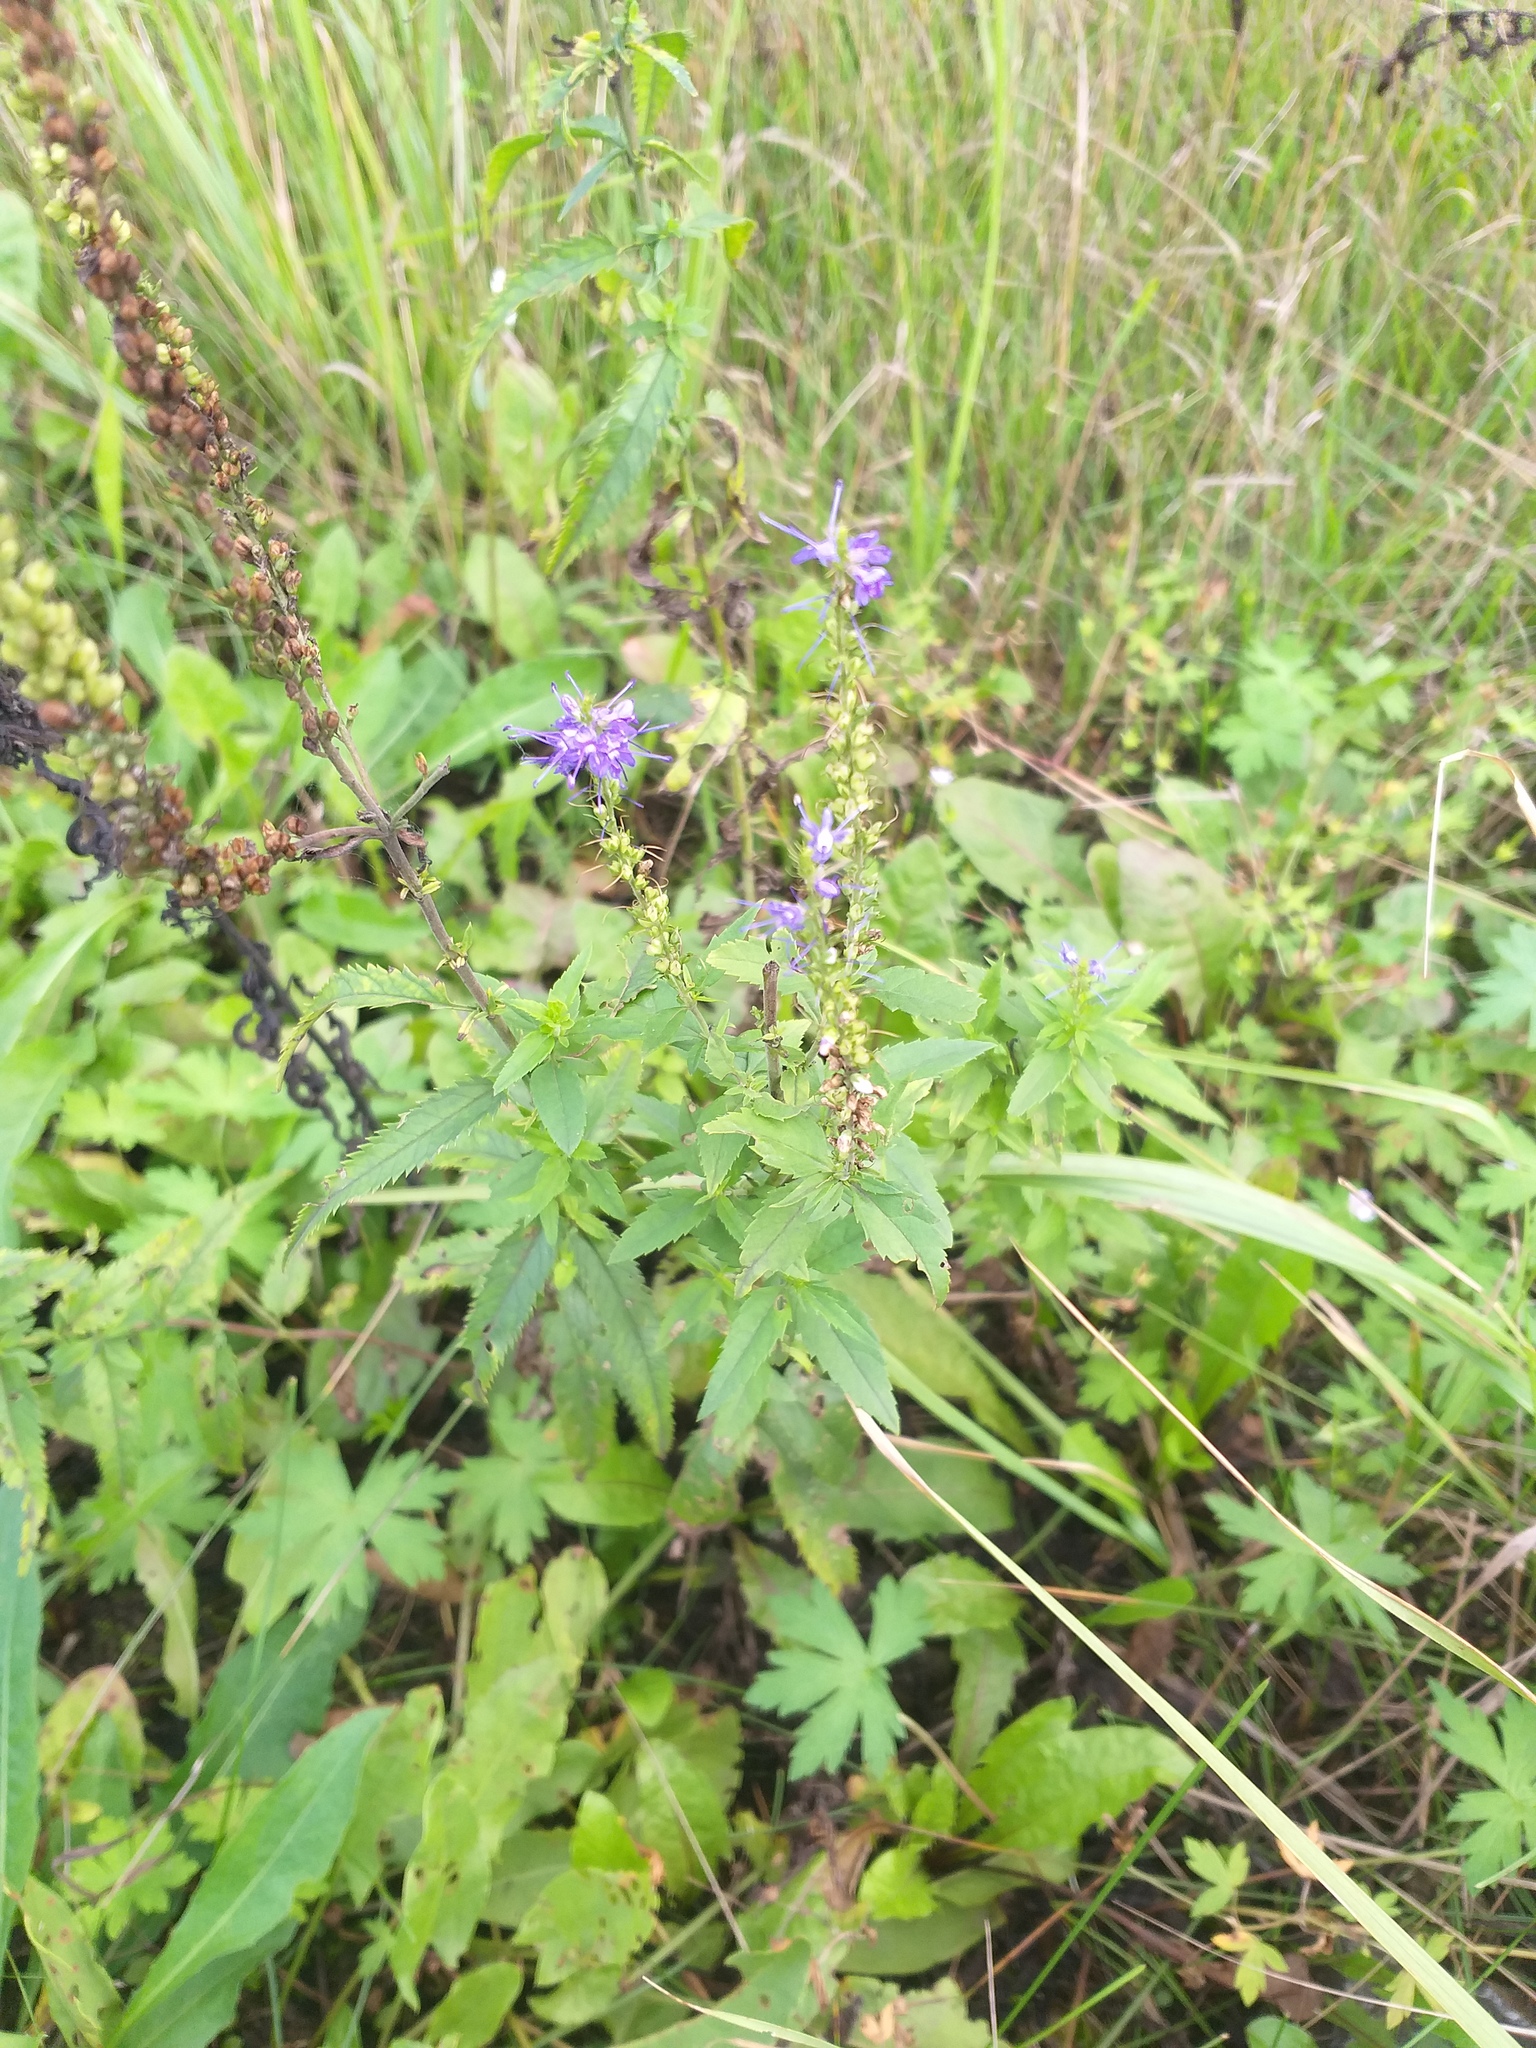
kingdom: Plantae
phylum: Tracheophyta
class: Magnoliopsida
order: Lamiales
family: Plantaginaceae
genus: Veronica
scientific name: Veronica longifolia
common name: Garden speedwell
